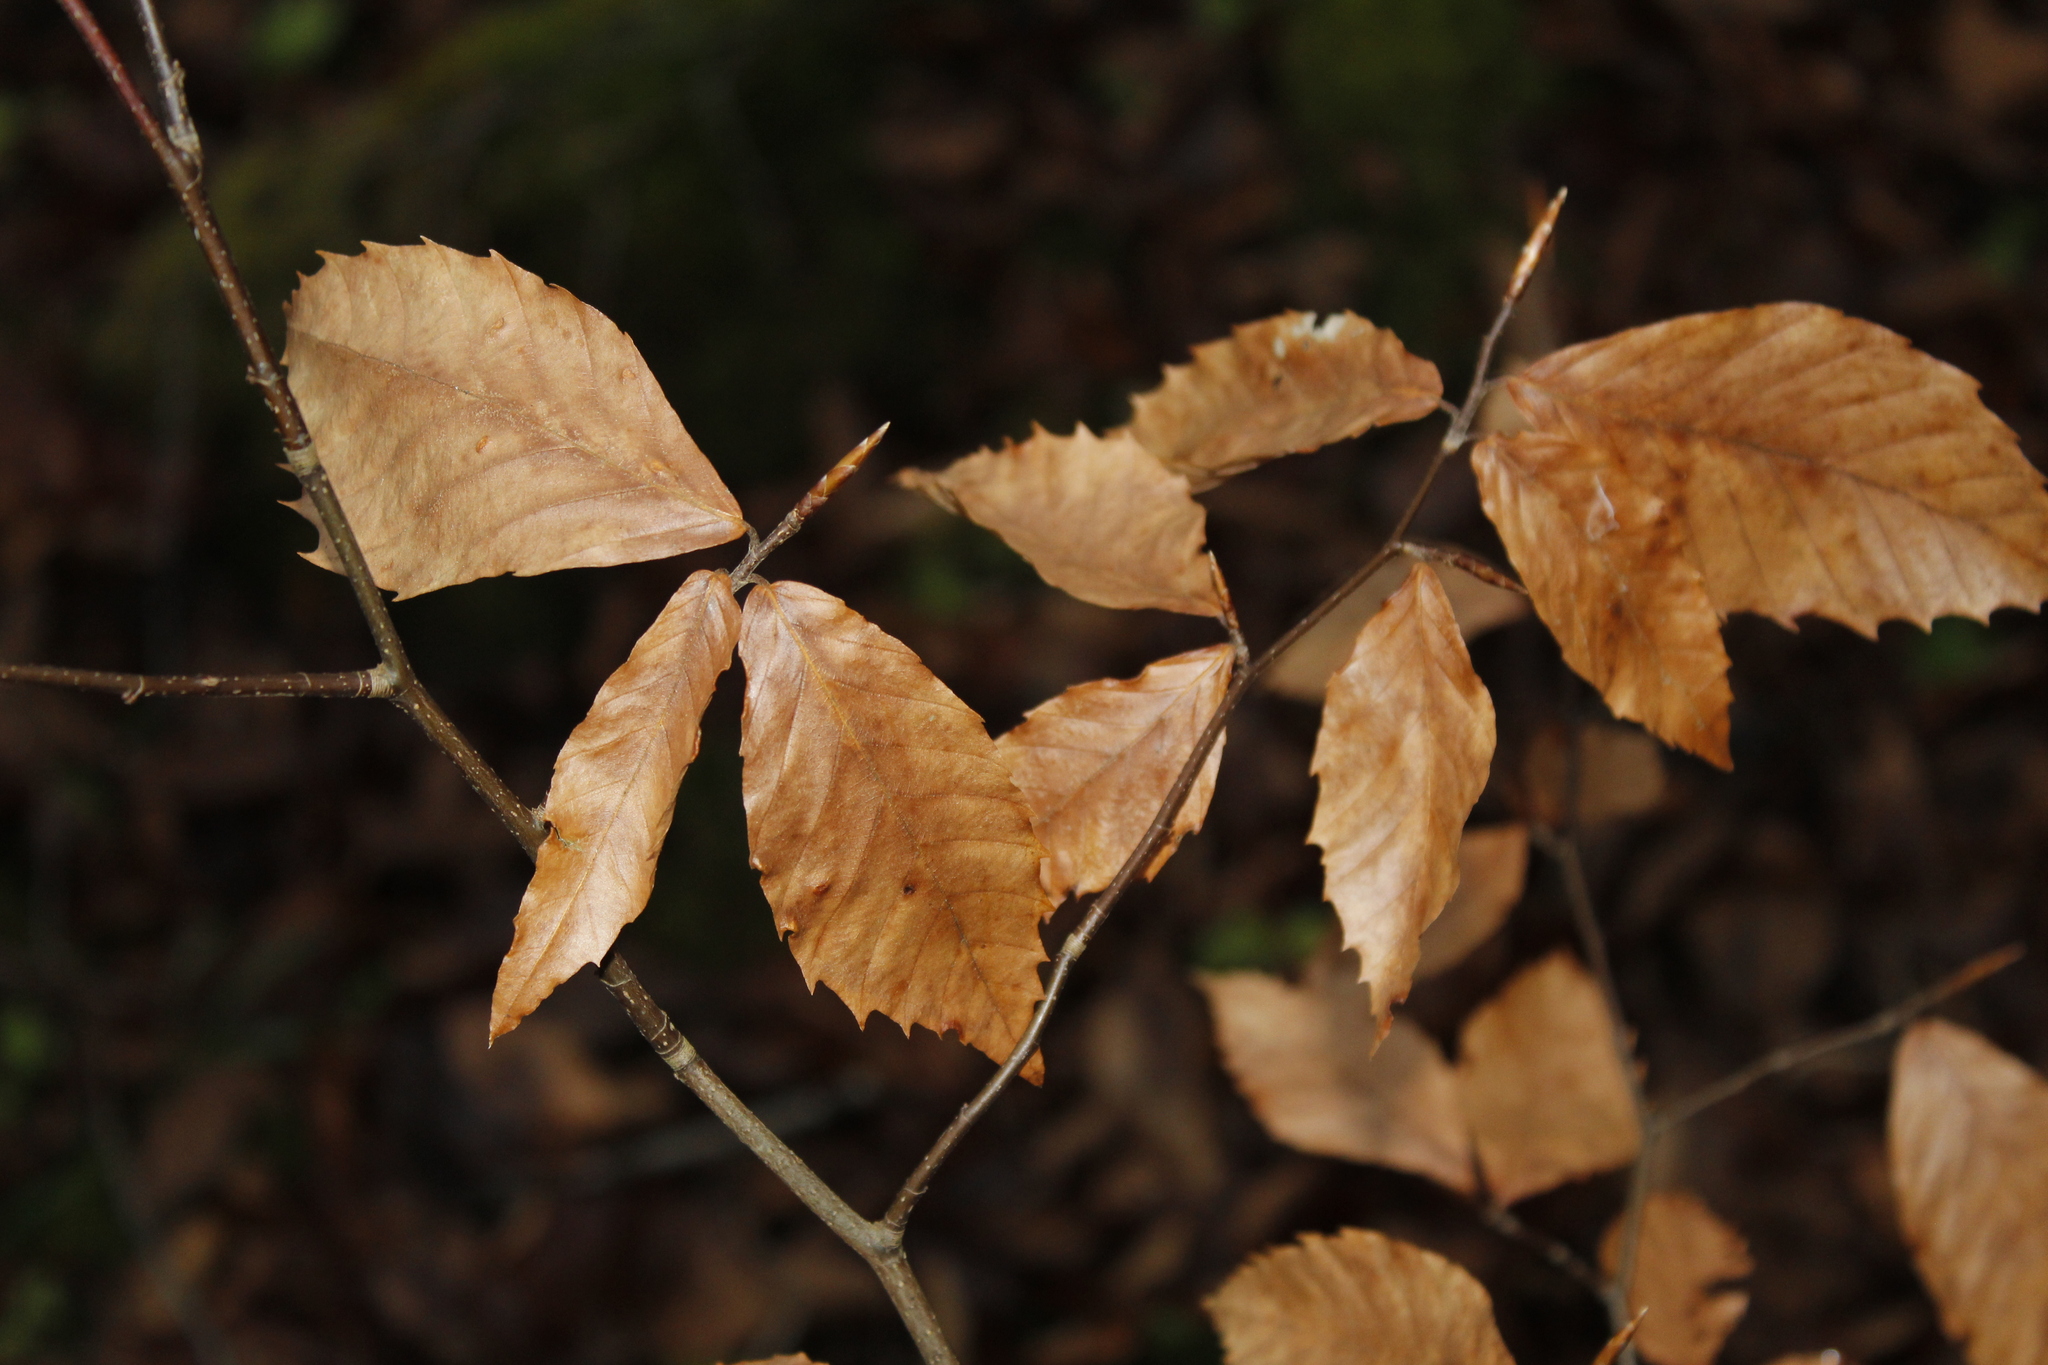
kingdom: Plantae
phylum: Tracheophyta
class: Magnoliopsida
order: Fagales
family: Fagaceae
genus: Fagus
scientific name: Fagus grandifolia
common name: American beech
